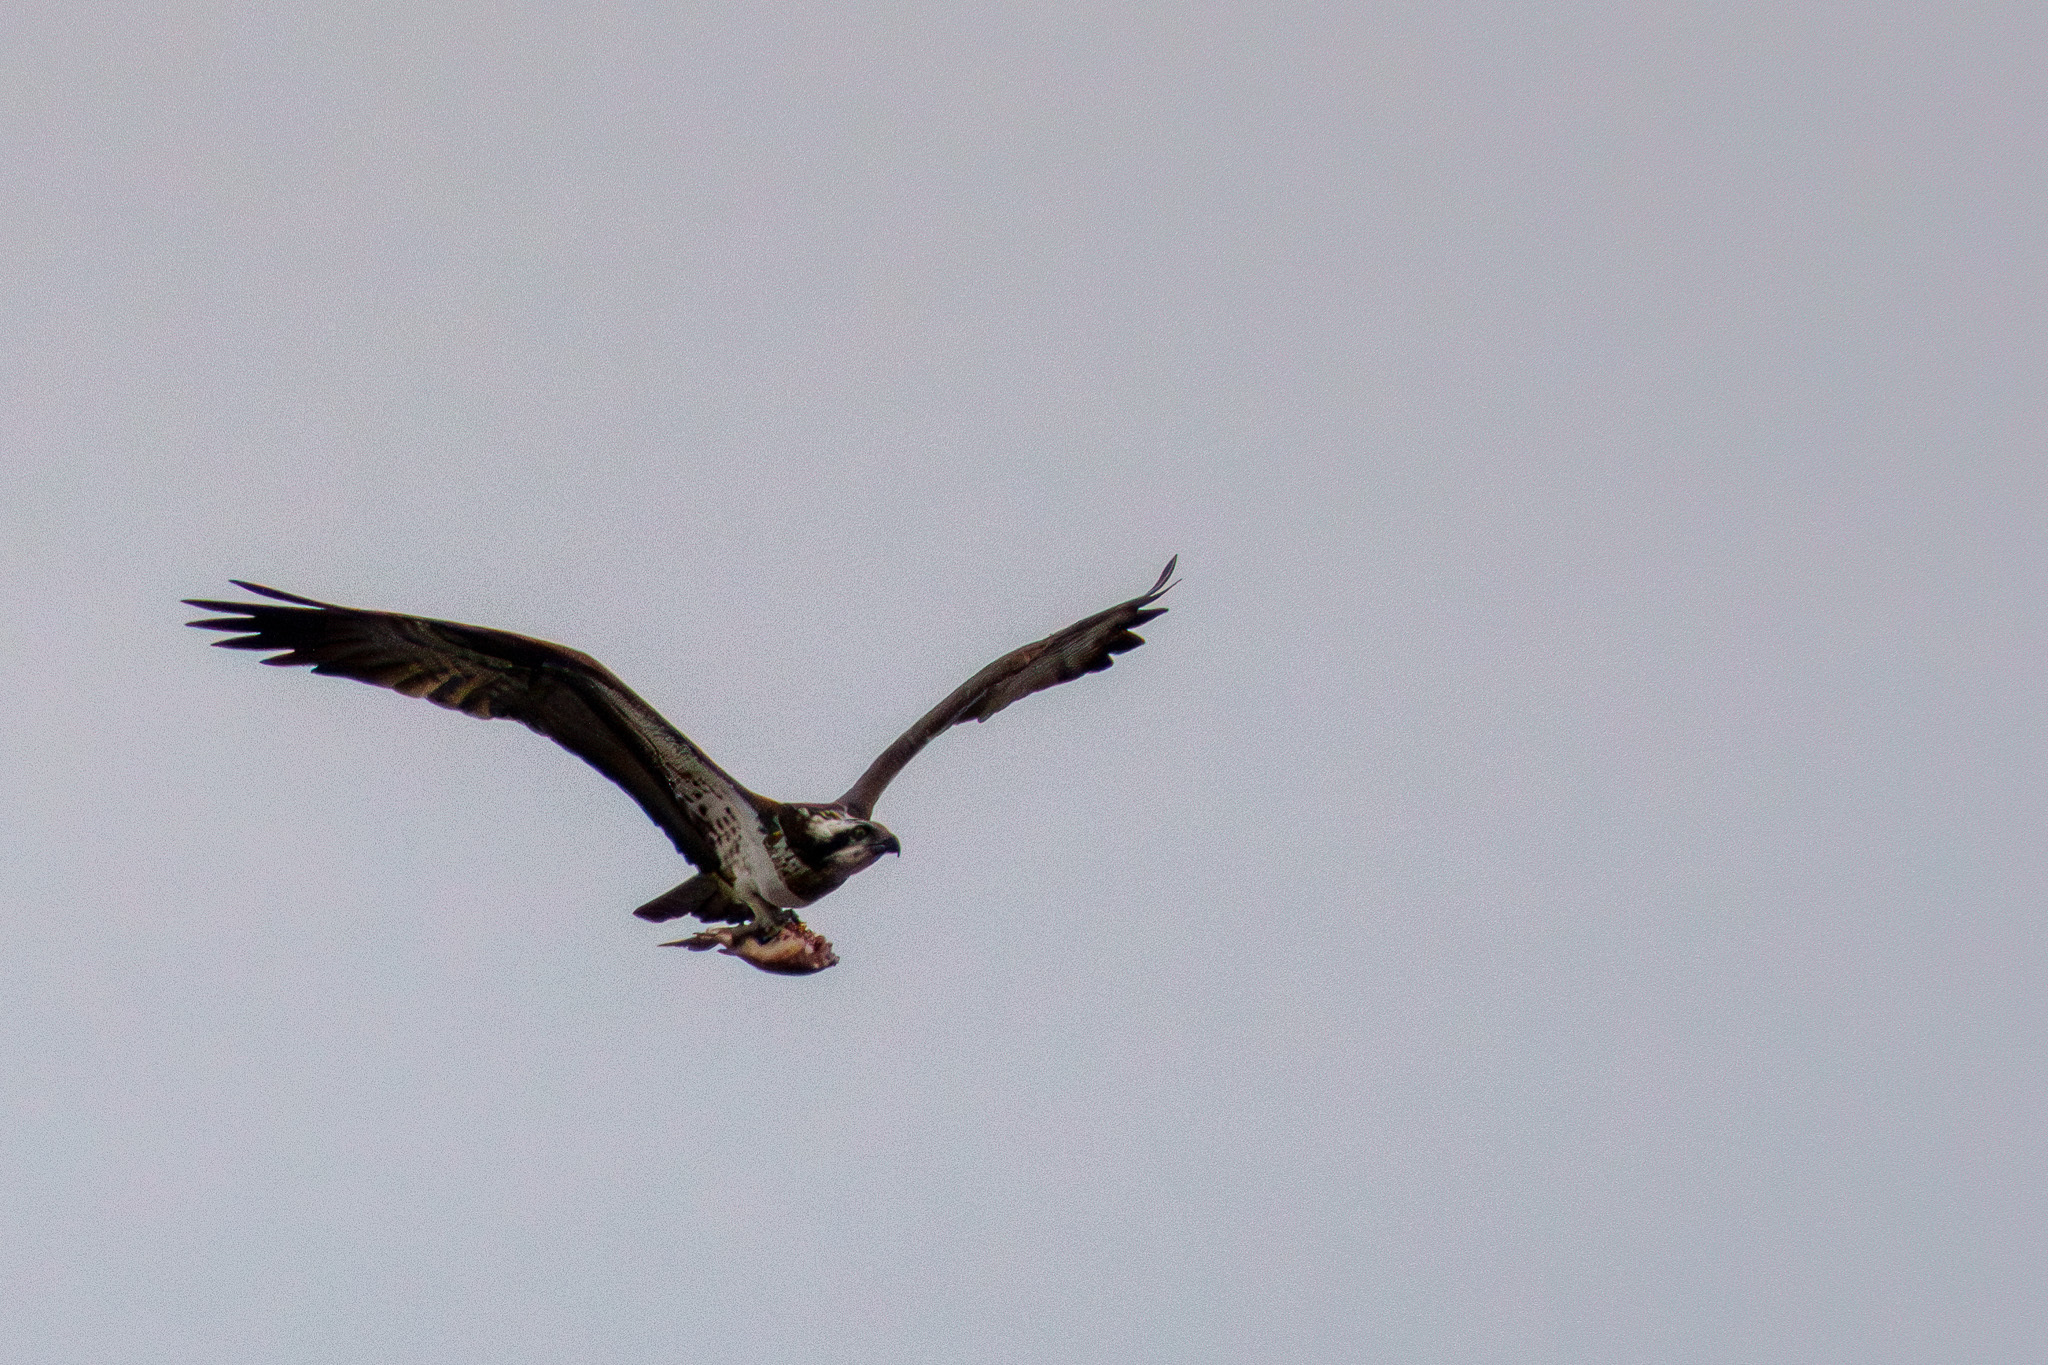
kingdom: Animalia
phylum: Chordata
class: Aves
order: Accipitriformes
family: Pandionidae
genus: Pandion
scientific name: Pandion haliaetus
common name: Osprey
